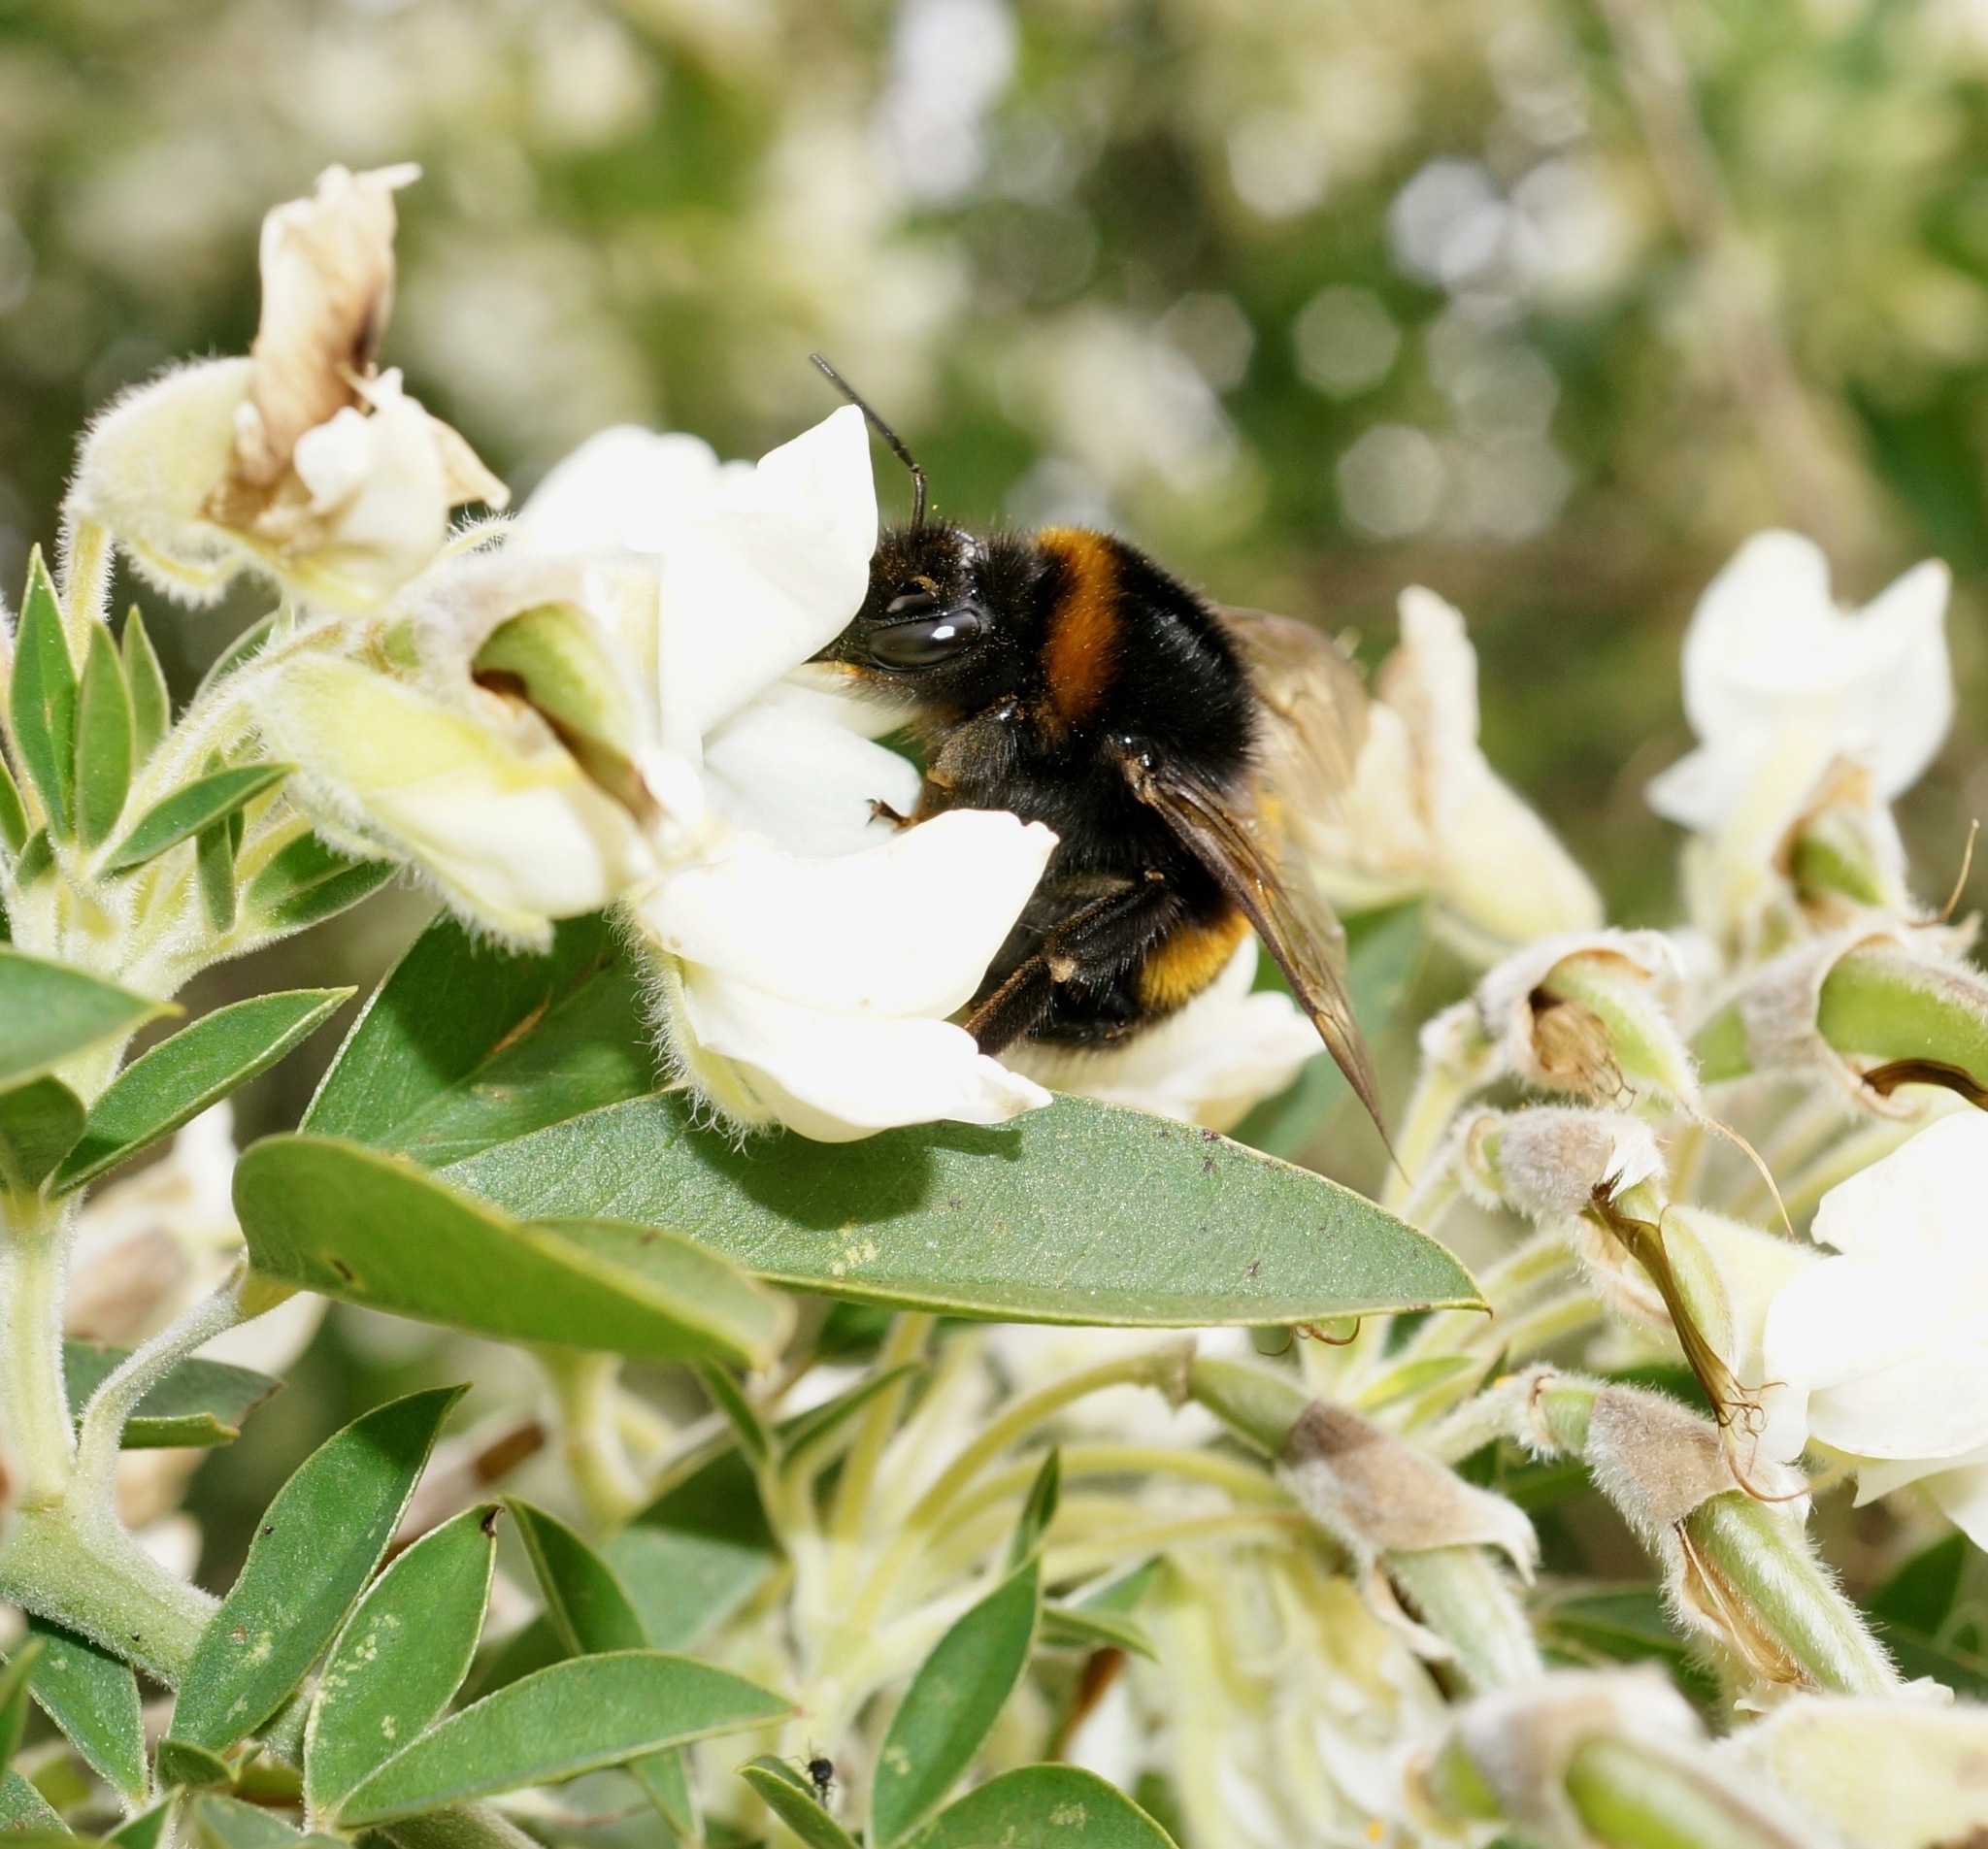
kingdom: Animalia
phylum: Arthropoda
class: Insecta
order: Hymenoptera
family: Apidae
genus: Bombus
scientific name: Bombus terrestris
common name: Buff-tailed bumblebee
